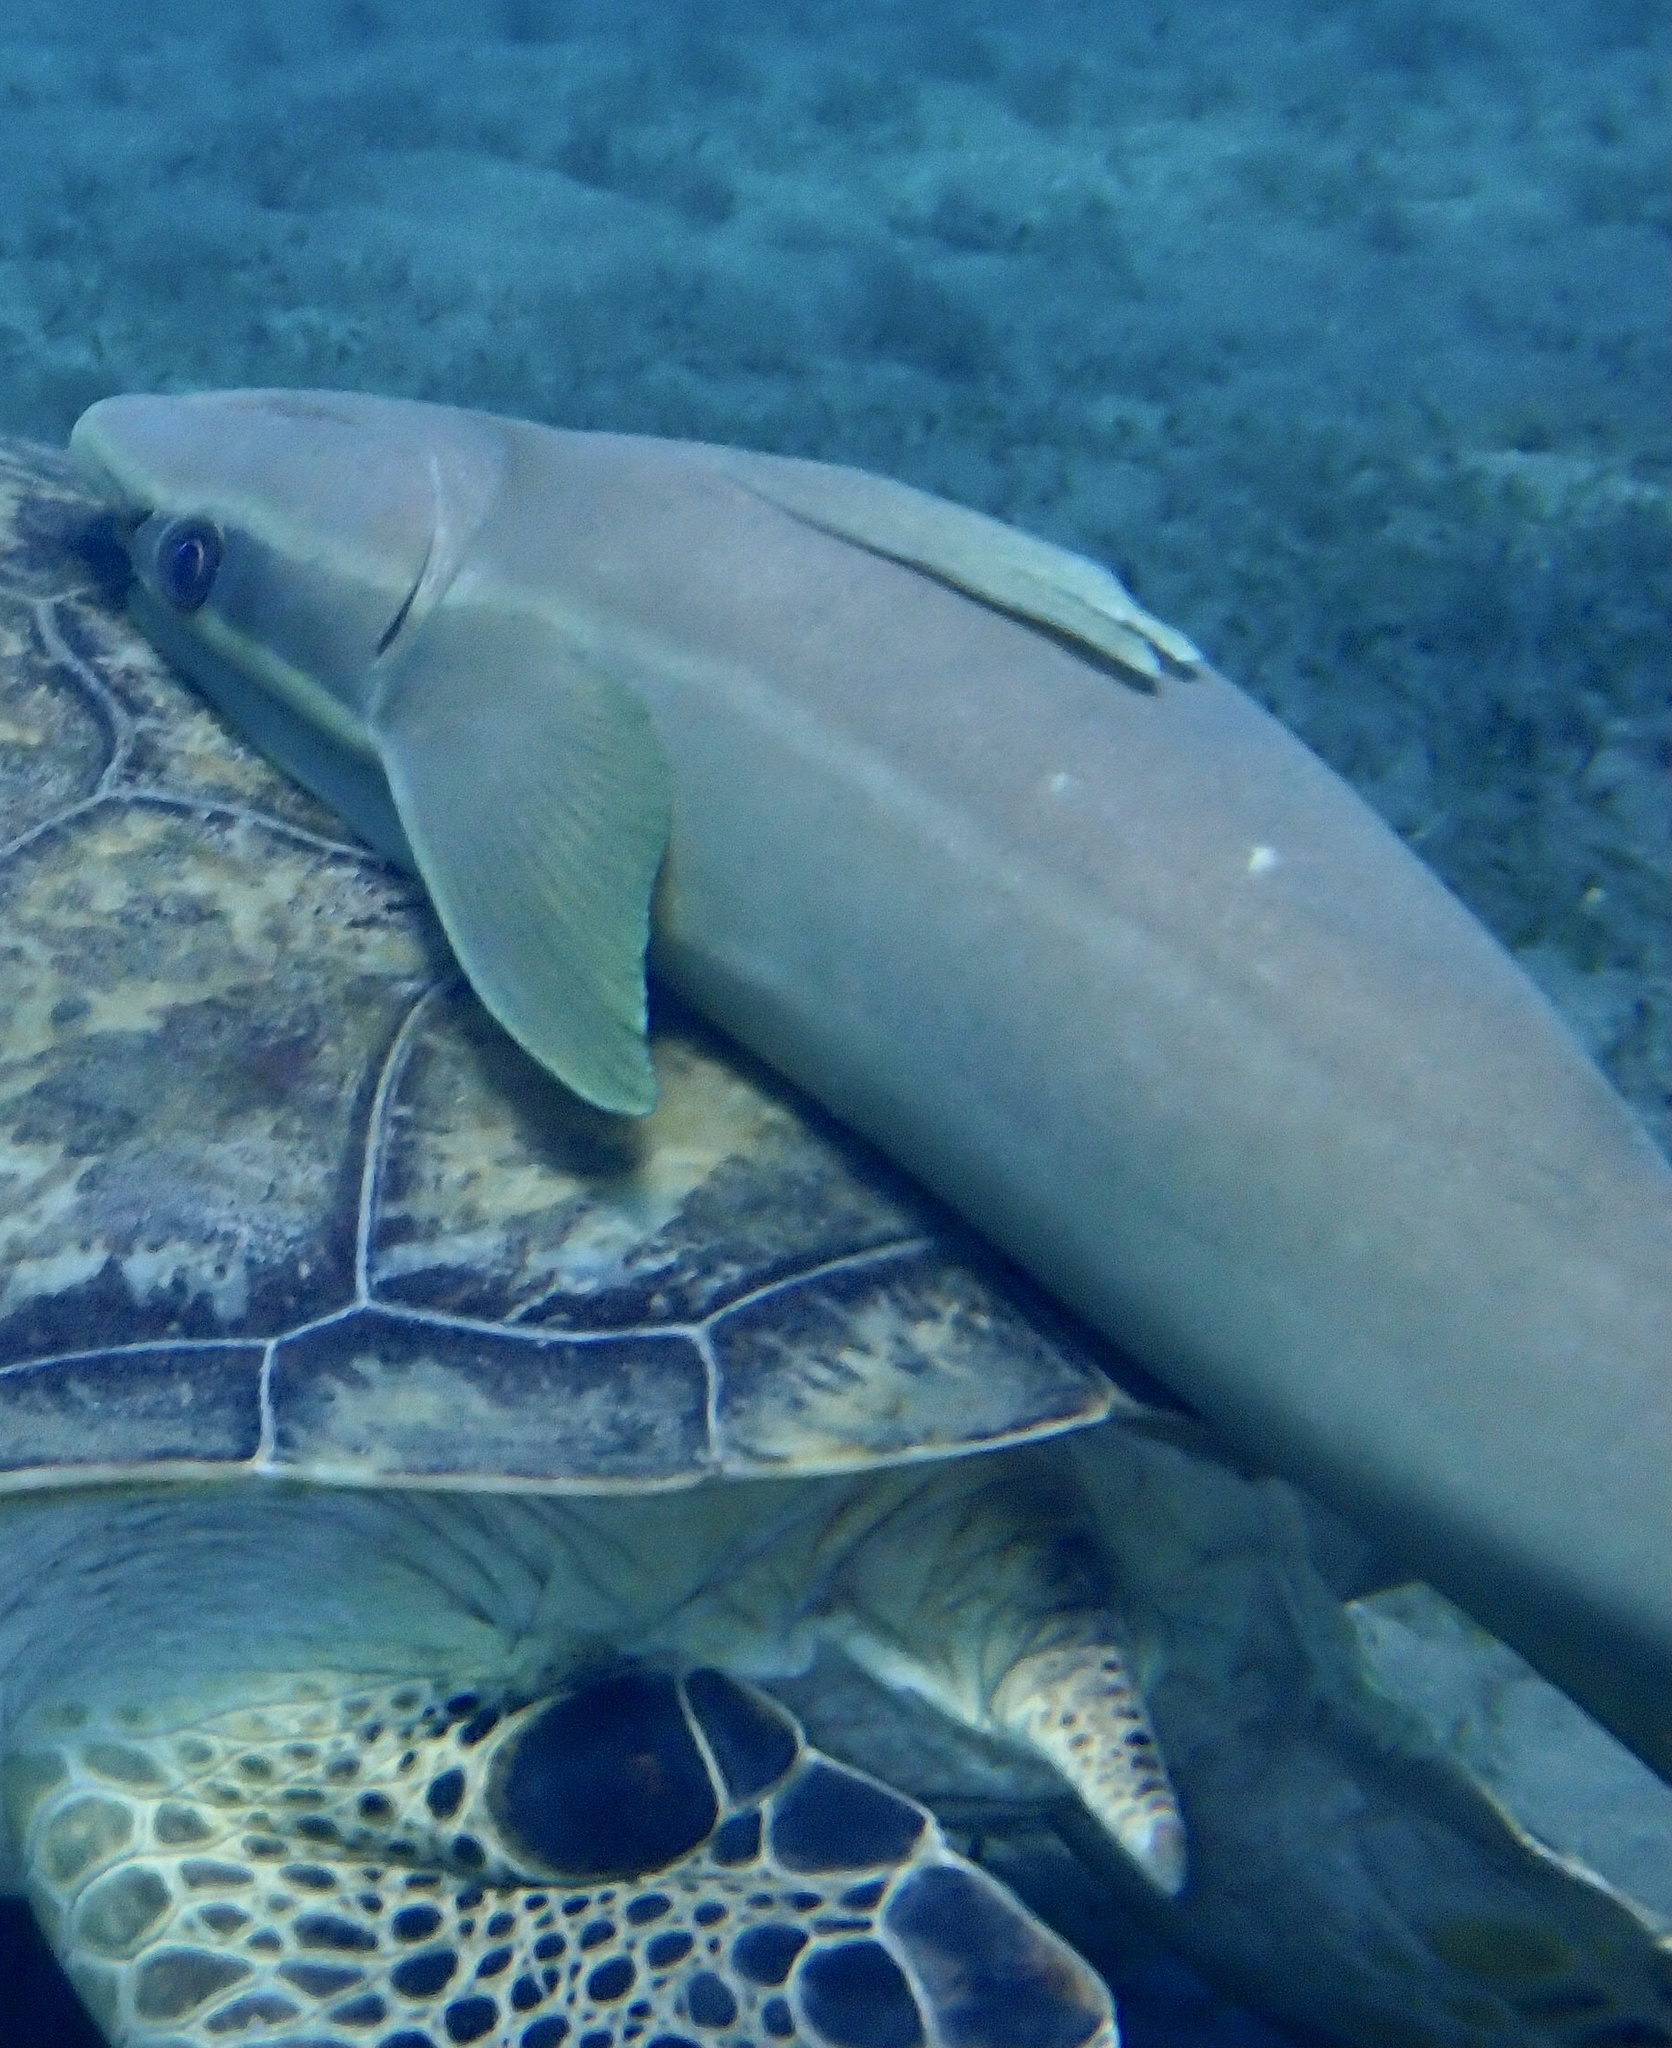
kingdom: Animalia
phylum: Chordata
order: Perciformes
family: Echeneidae
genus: Echeneis
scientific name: Echeneis naucrates
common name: Sharksucker
